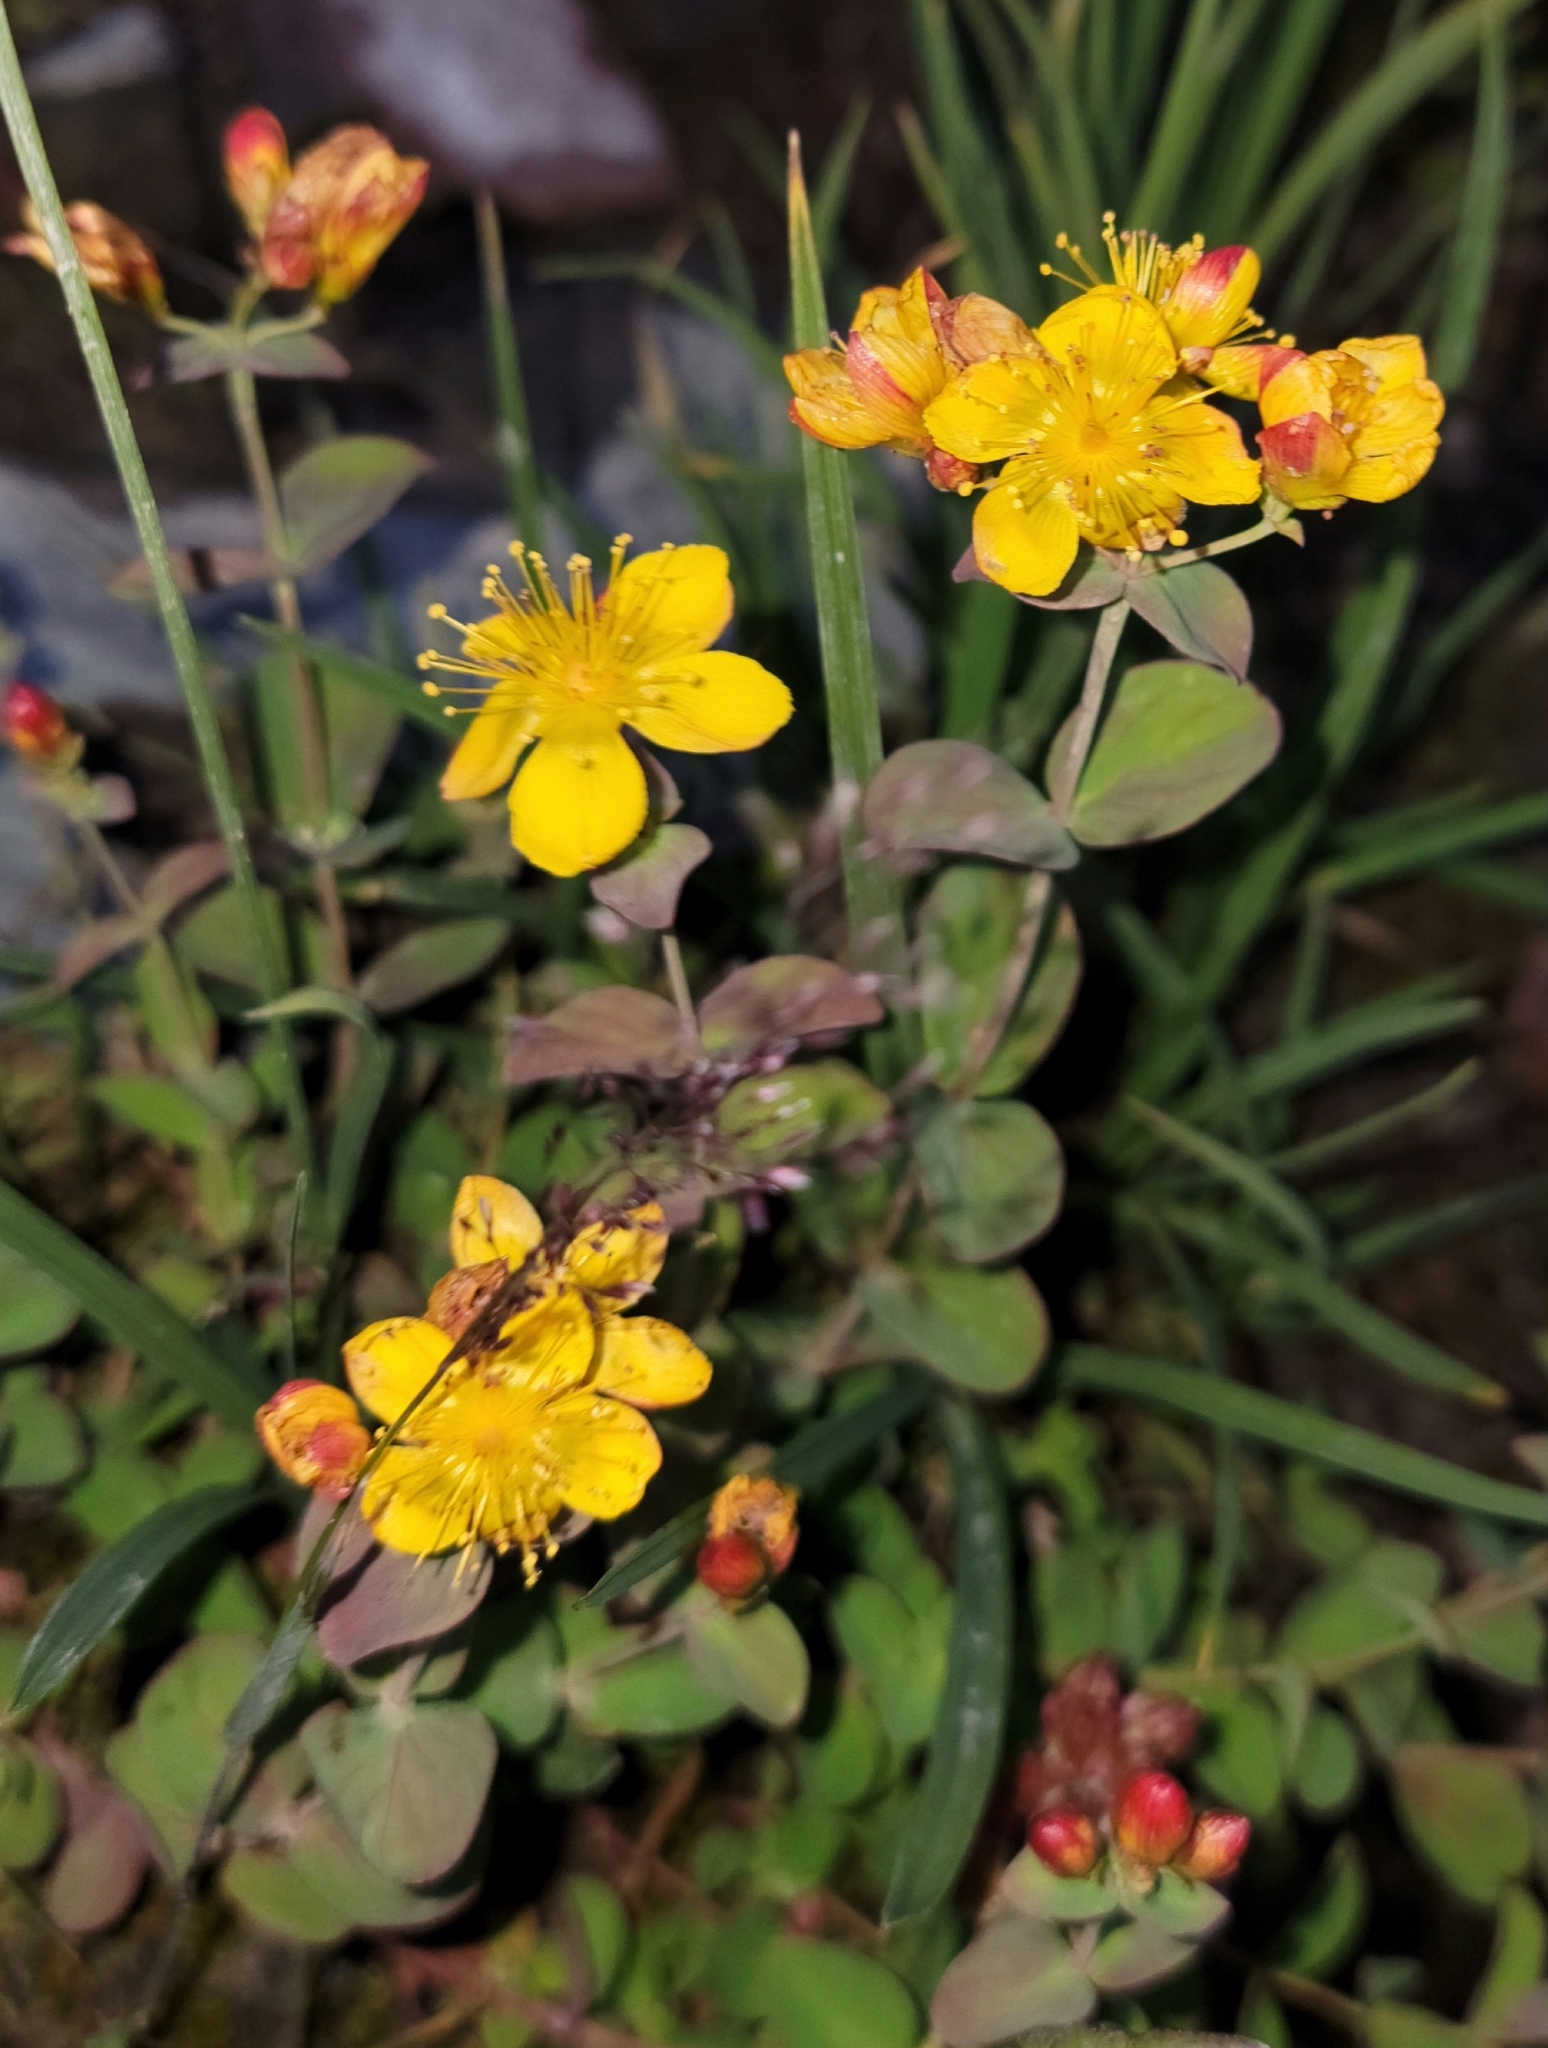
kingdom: Plantae
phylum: Tracheophyta
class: Magnoliopsida
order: Malpighiales
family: Hypericaceae
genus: Hypericum
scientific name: Hypericum scouleri
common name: Scouler's st. john's-wort
